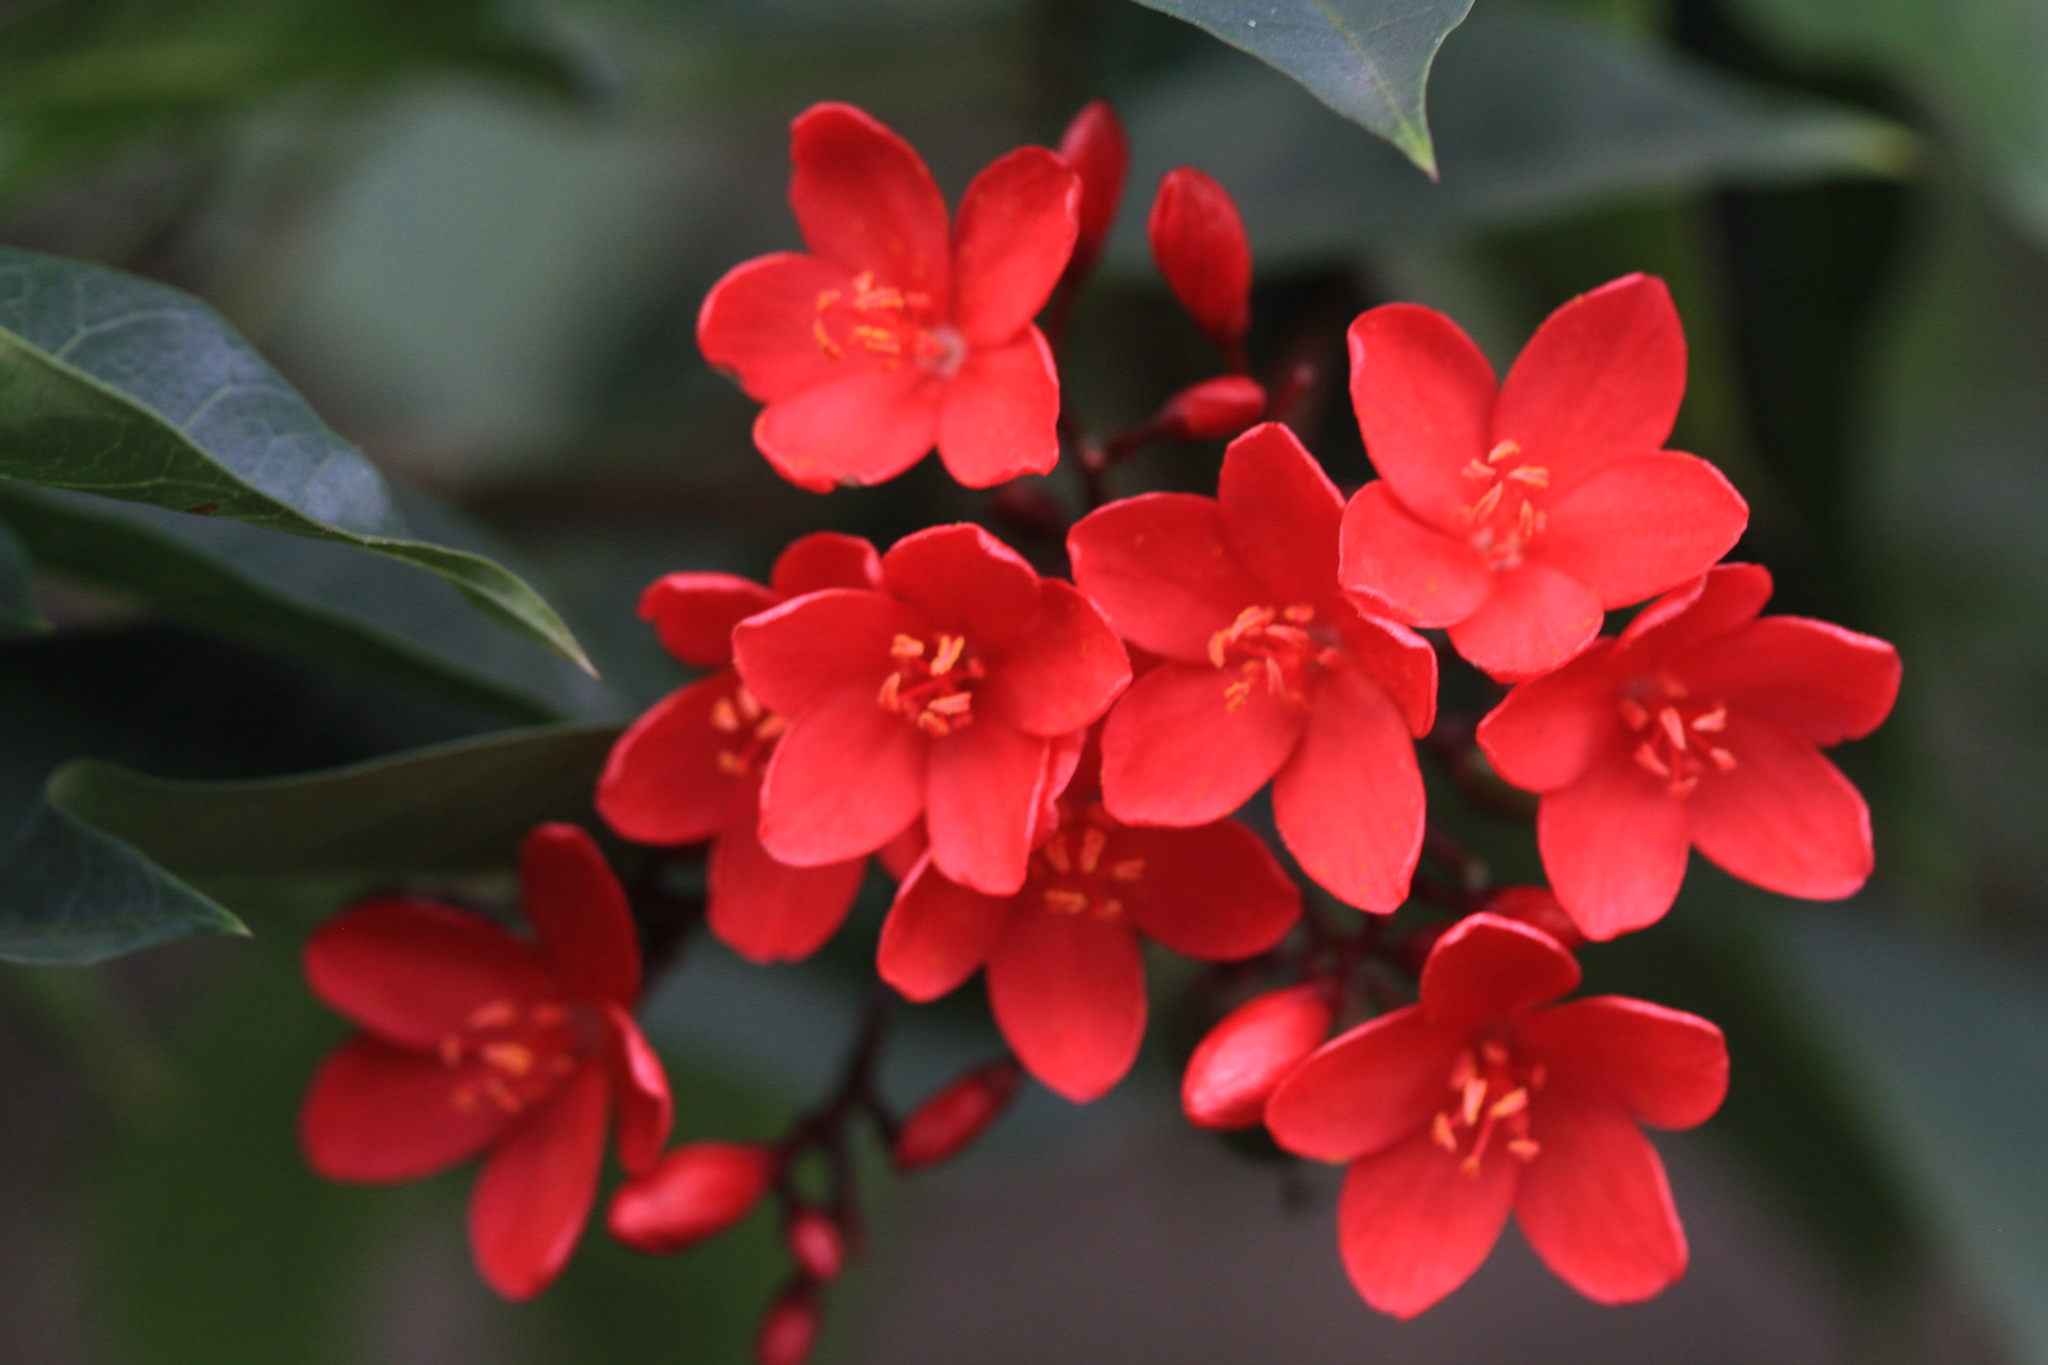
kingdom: Plantae
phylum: Tracheophyta
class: Magnoliopsida
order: Malpighiales
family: Euphorbiaceae
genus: Jatropha
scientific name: Jatropha integerrima
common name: Peregrina
